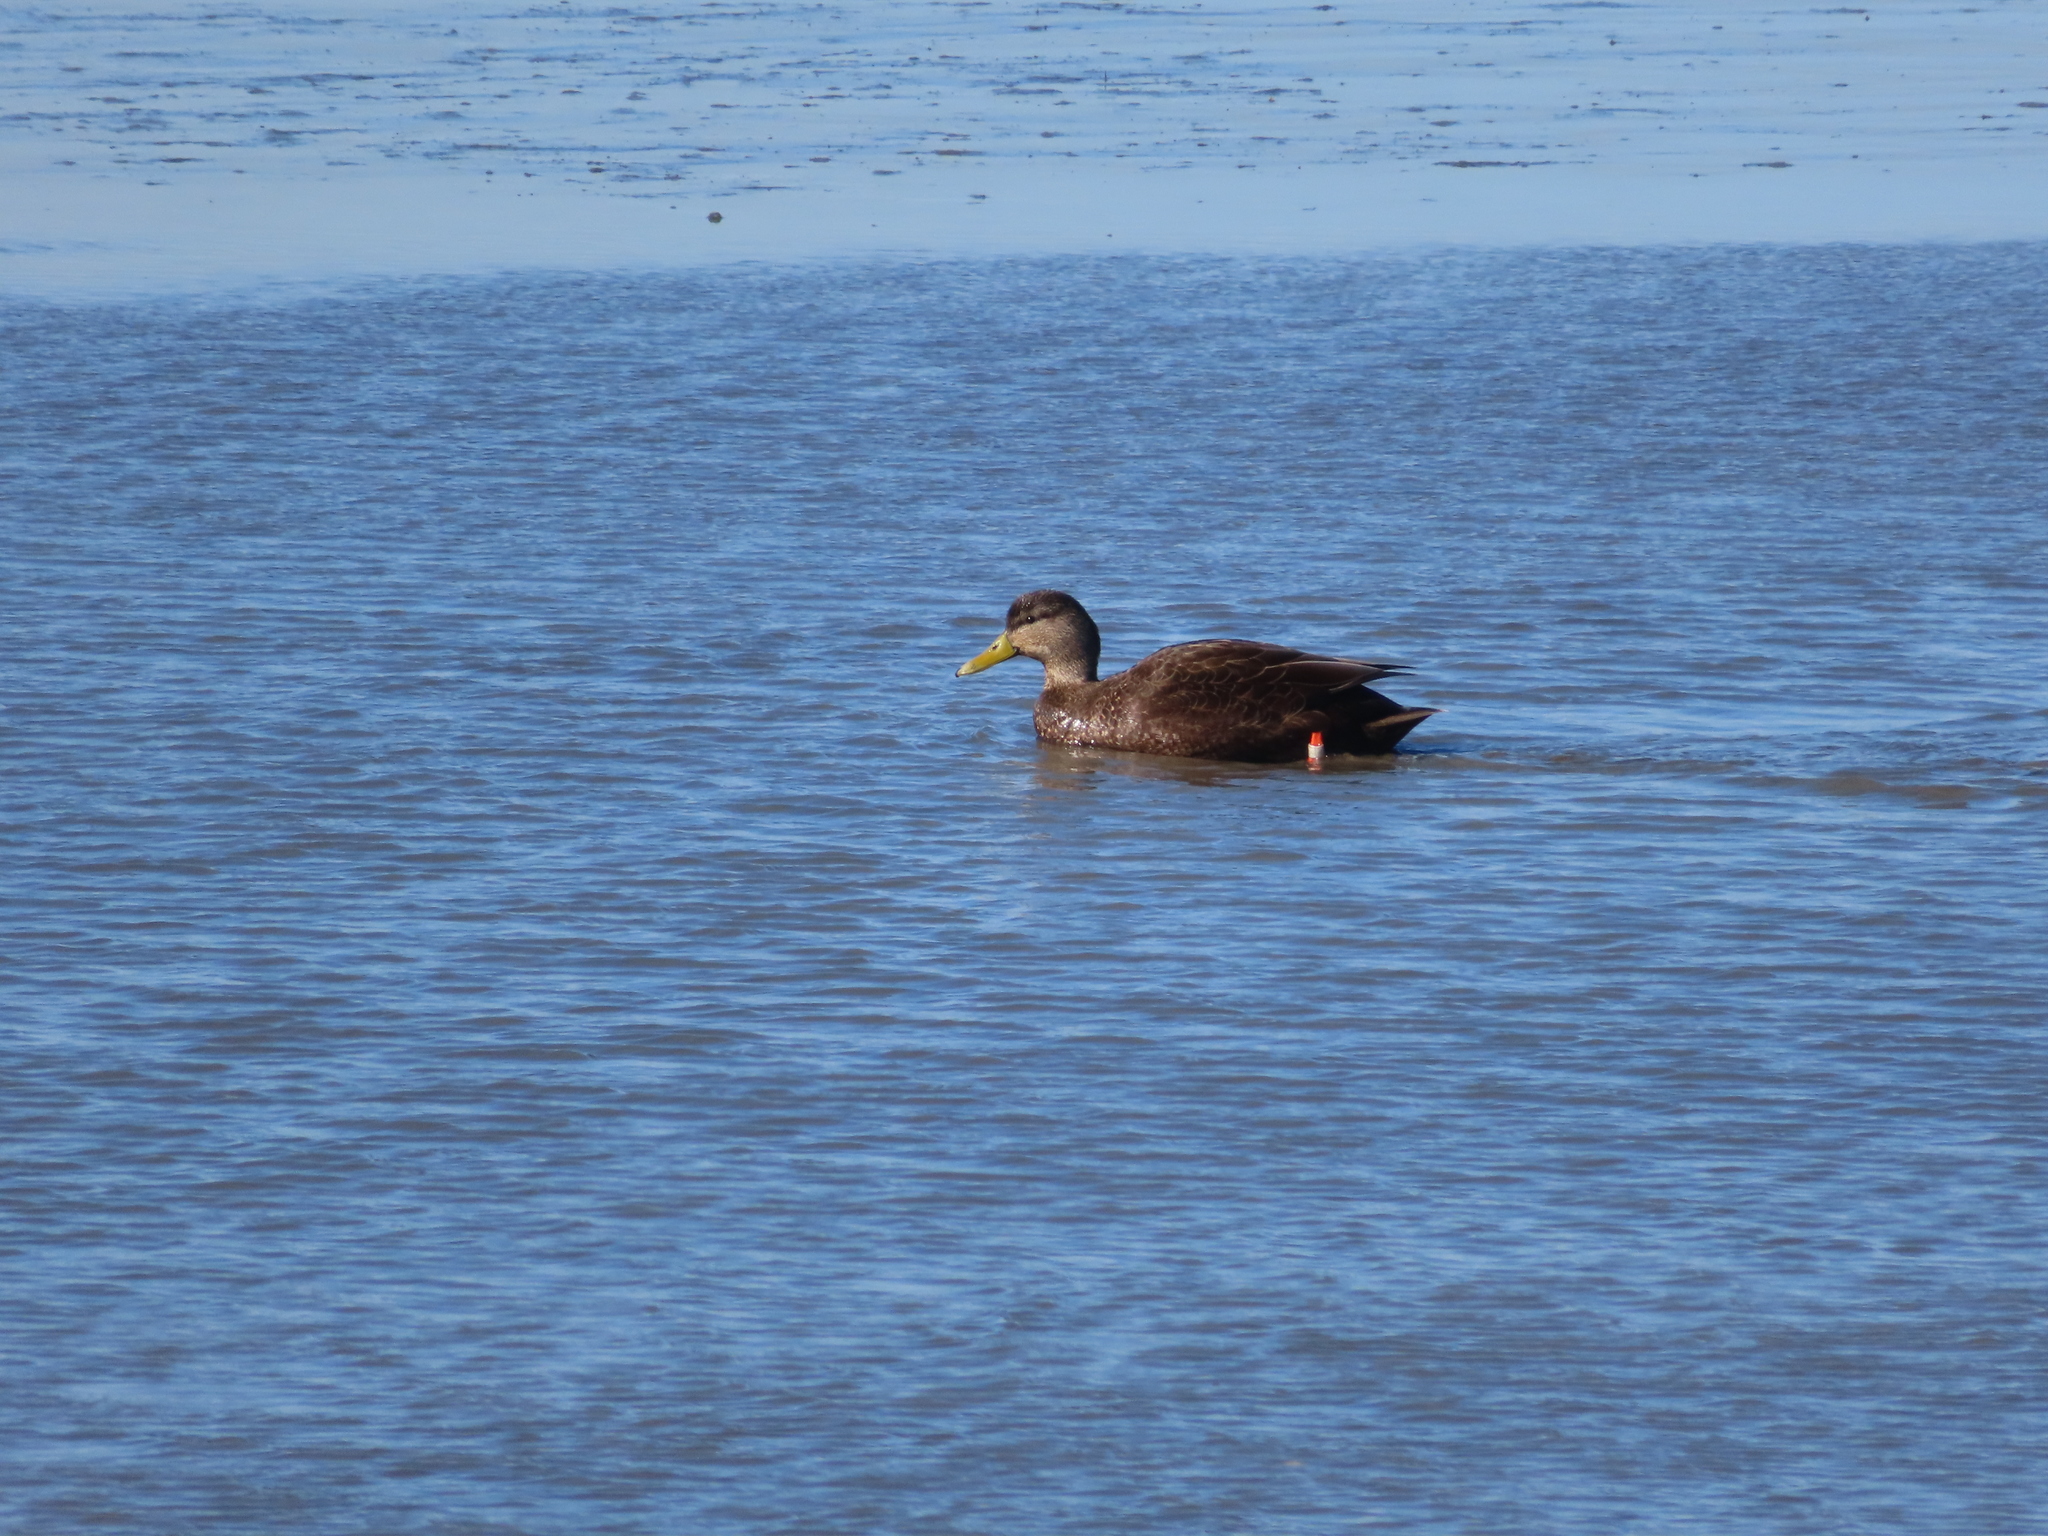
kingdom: Animalia
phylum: Chordata
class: Aves
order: Anseriformes
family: Anatidae
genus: Anas
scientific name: Anas rubripes
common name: American black duck
